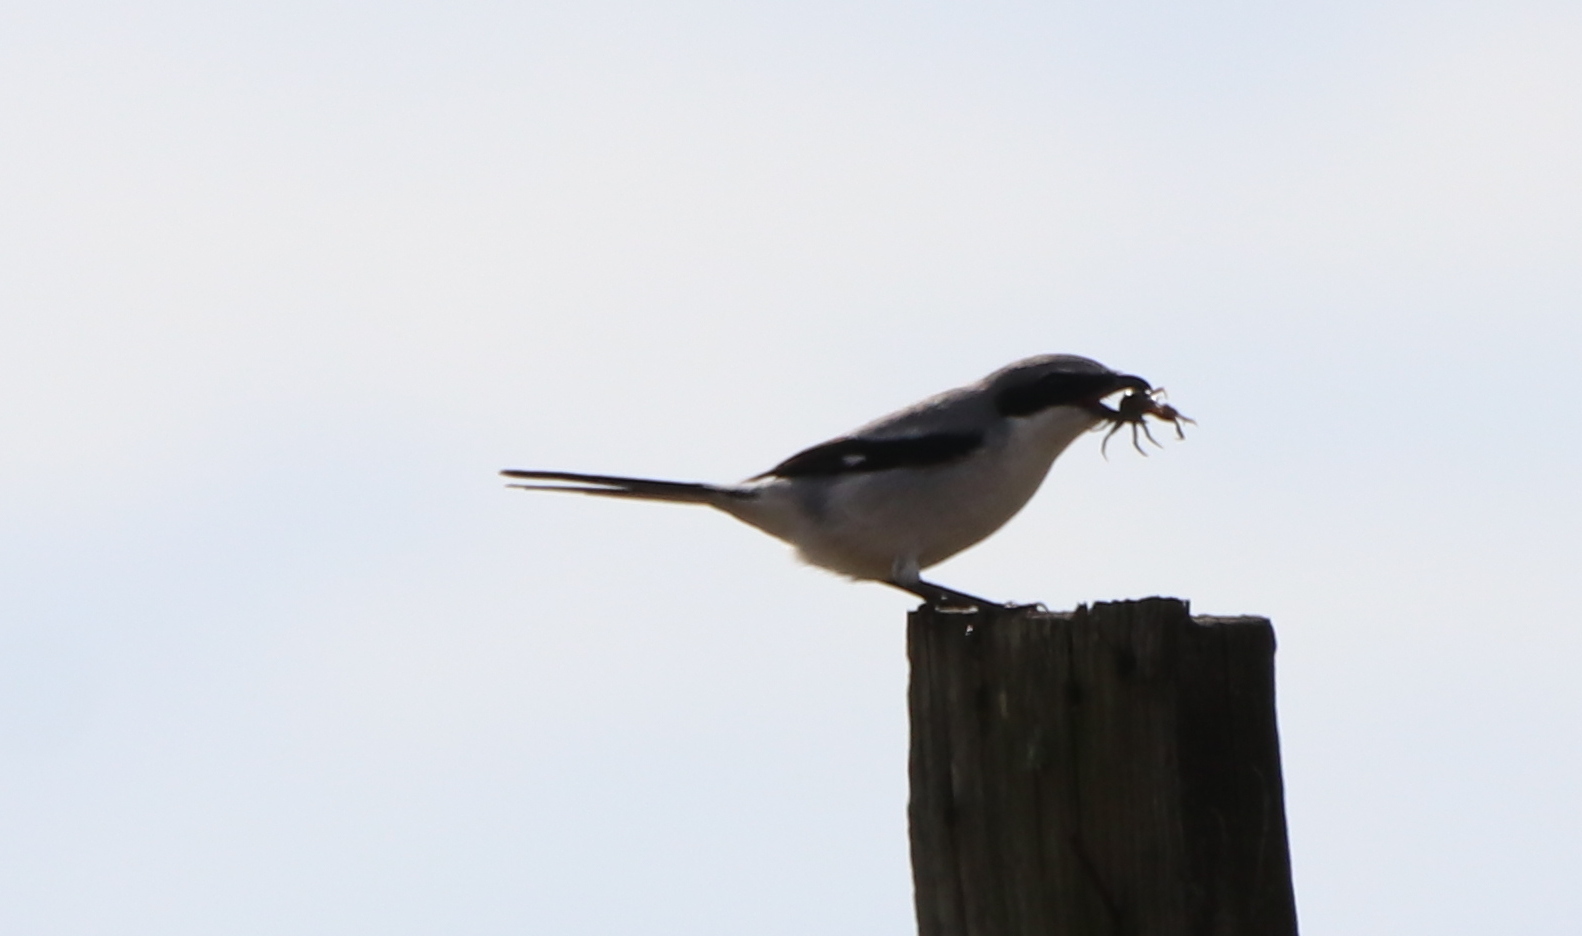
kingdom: Animalia
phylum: Chordata
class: Aves
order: Passeriformes
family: Laniidae
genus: Lanius
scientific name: Lanius ludovicianus
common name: Loggerhead shrike
